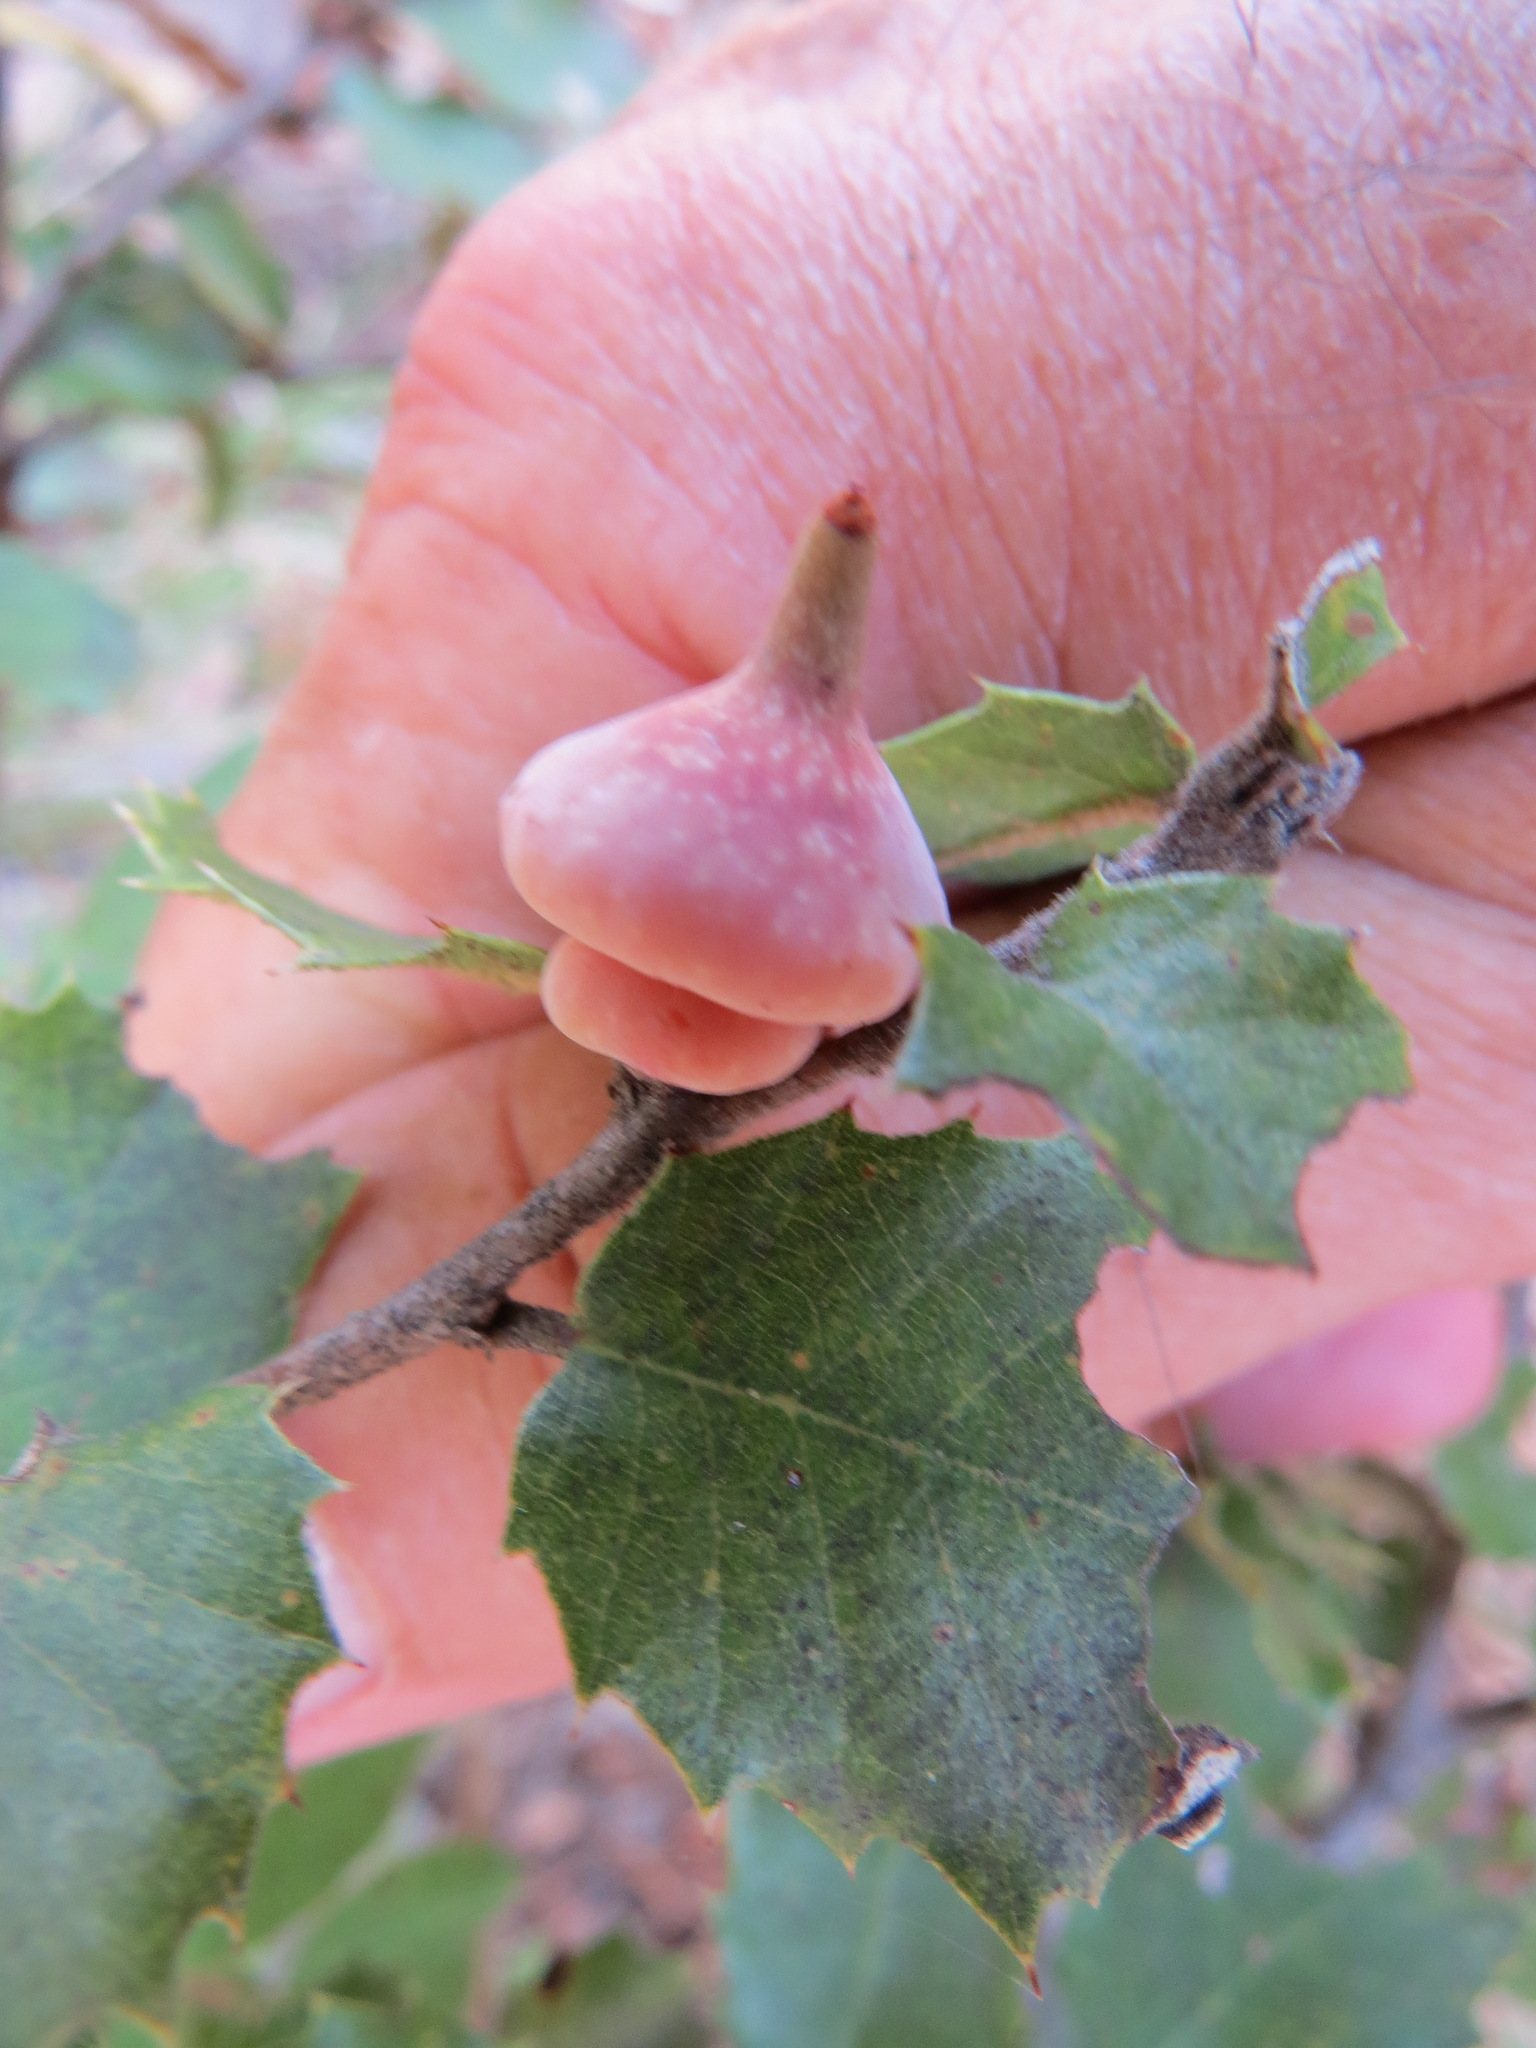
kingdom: Animalia
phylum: Arthropoda
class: Insecta
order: Hymenoptera
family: Cynipidae
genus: Heteroecus
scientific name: Heteroecus
